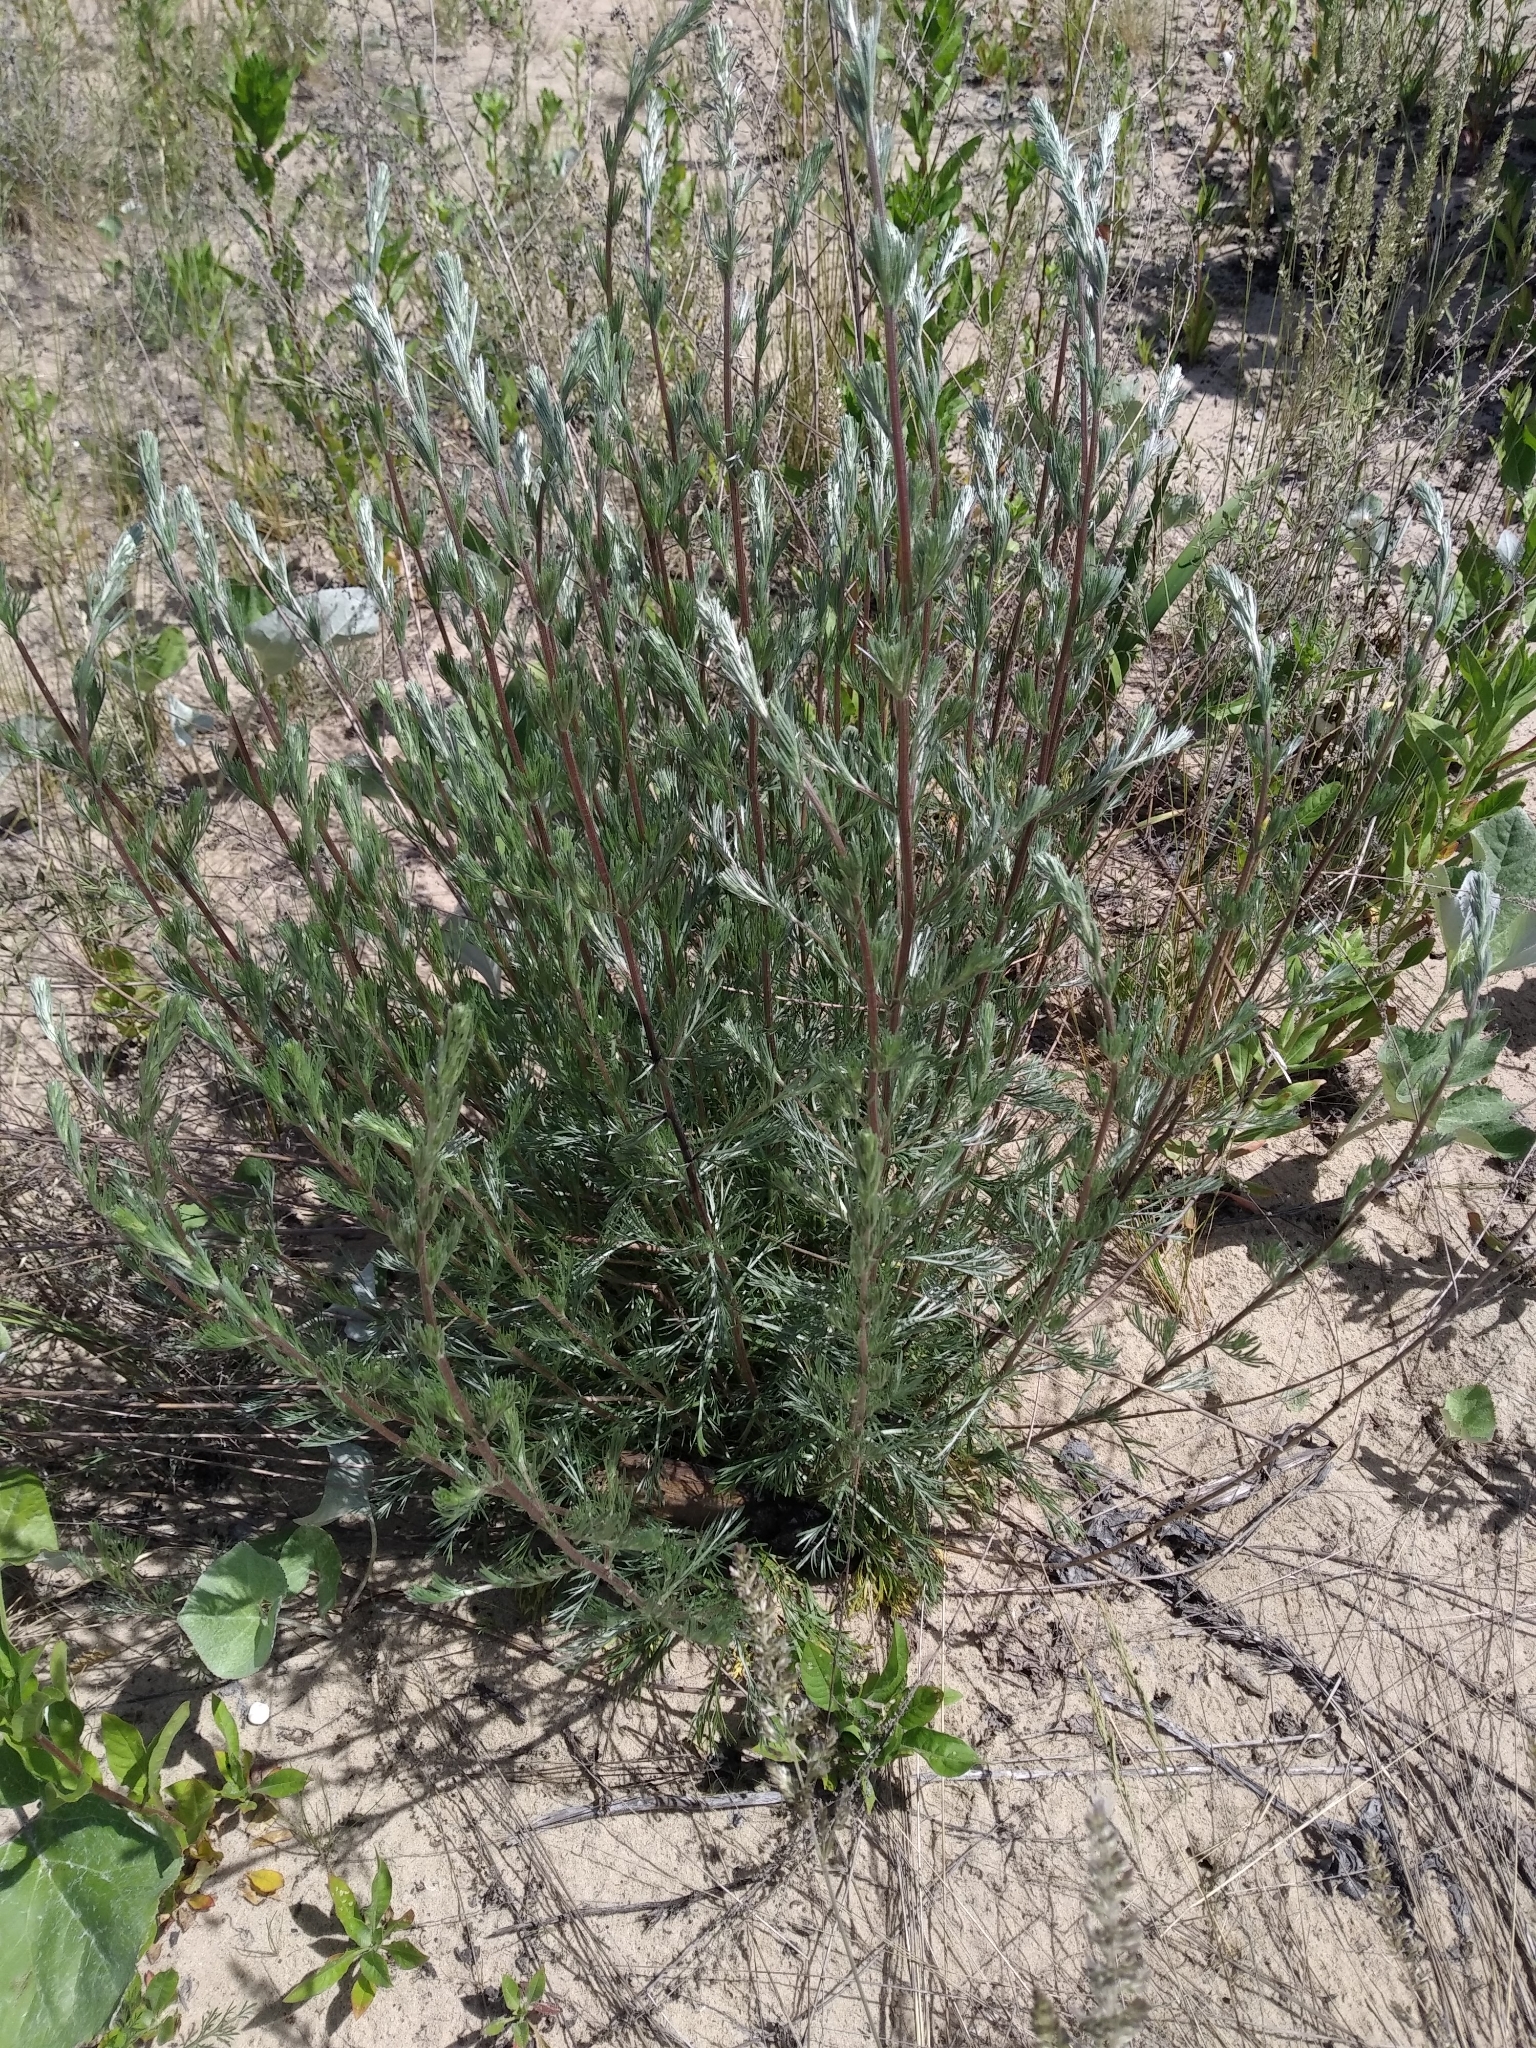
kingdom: Plantae
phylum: Tracheophyta
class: Magnoliopsida
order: Asterales
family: Asteraceae
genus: Artemisia
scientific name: Artemisia campestris
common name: Field wormwood
